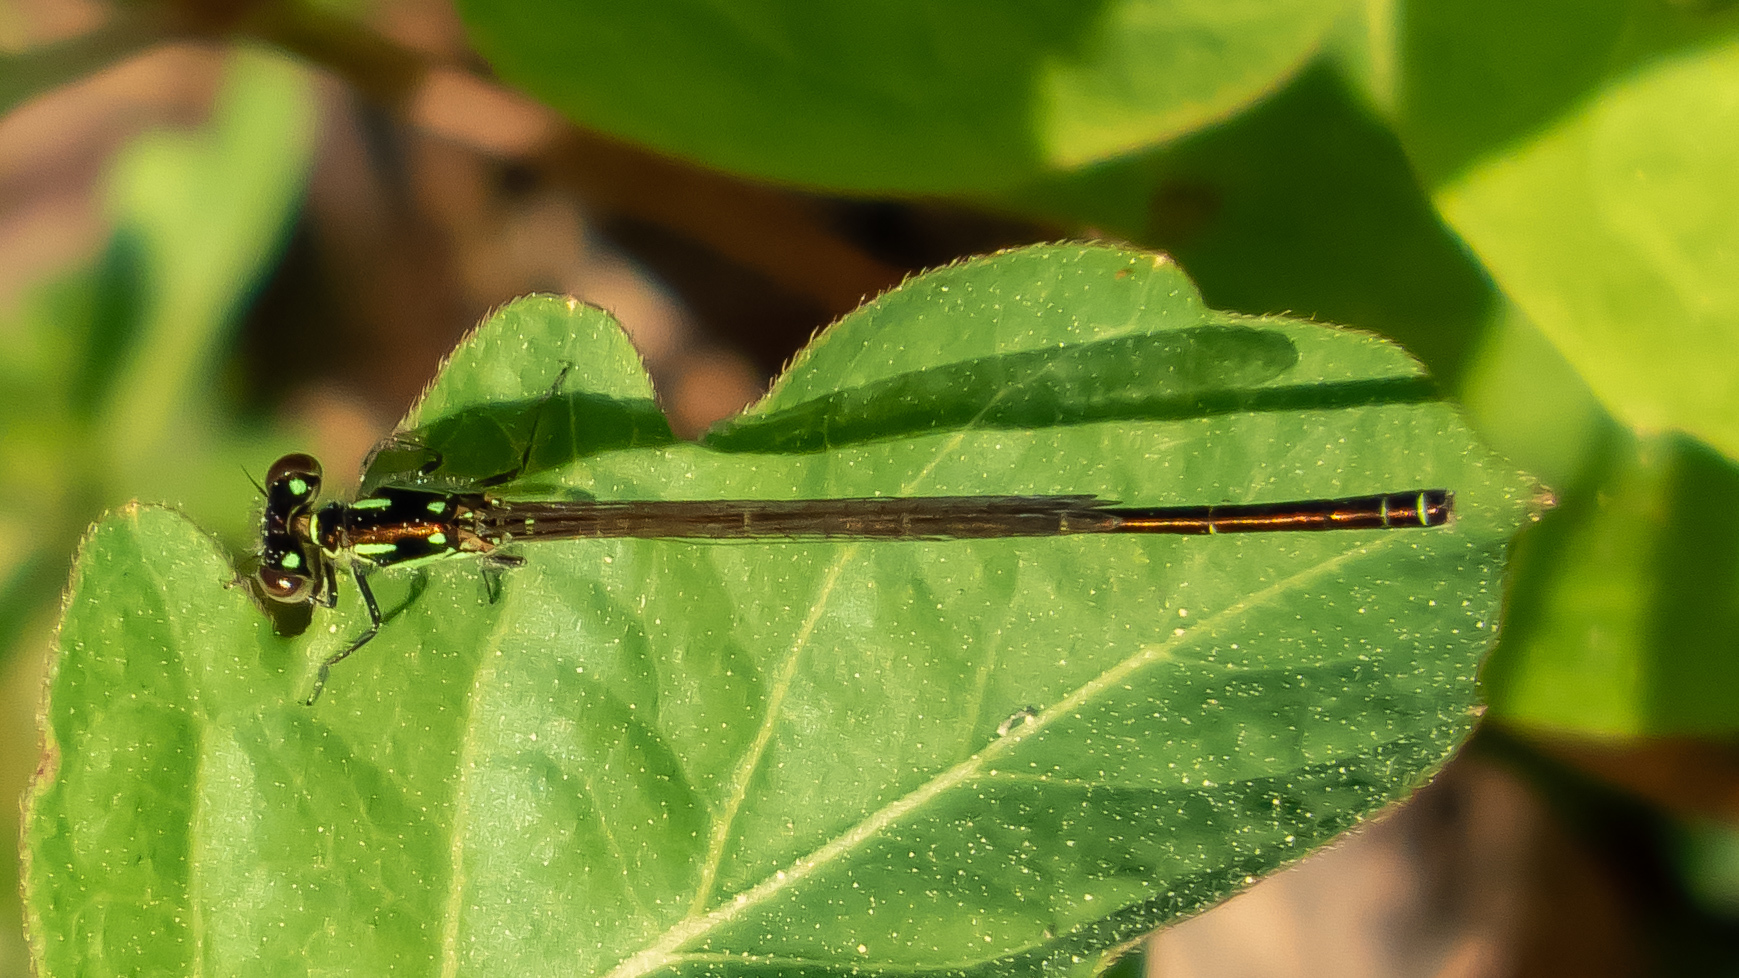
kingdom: Animalia
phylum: Arthropoda
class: Insecta
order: Odonata
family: Coenagrionidae
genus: Ischnura
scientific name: Ischnura posita
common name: Fragile forktail
